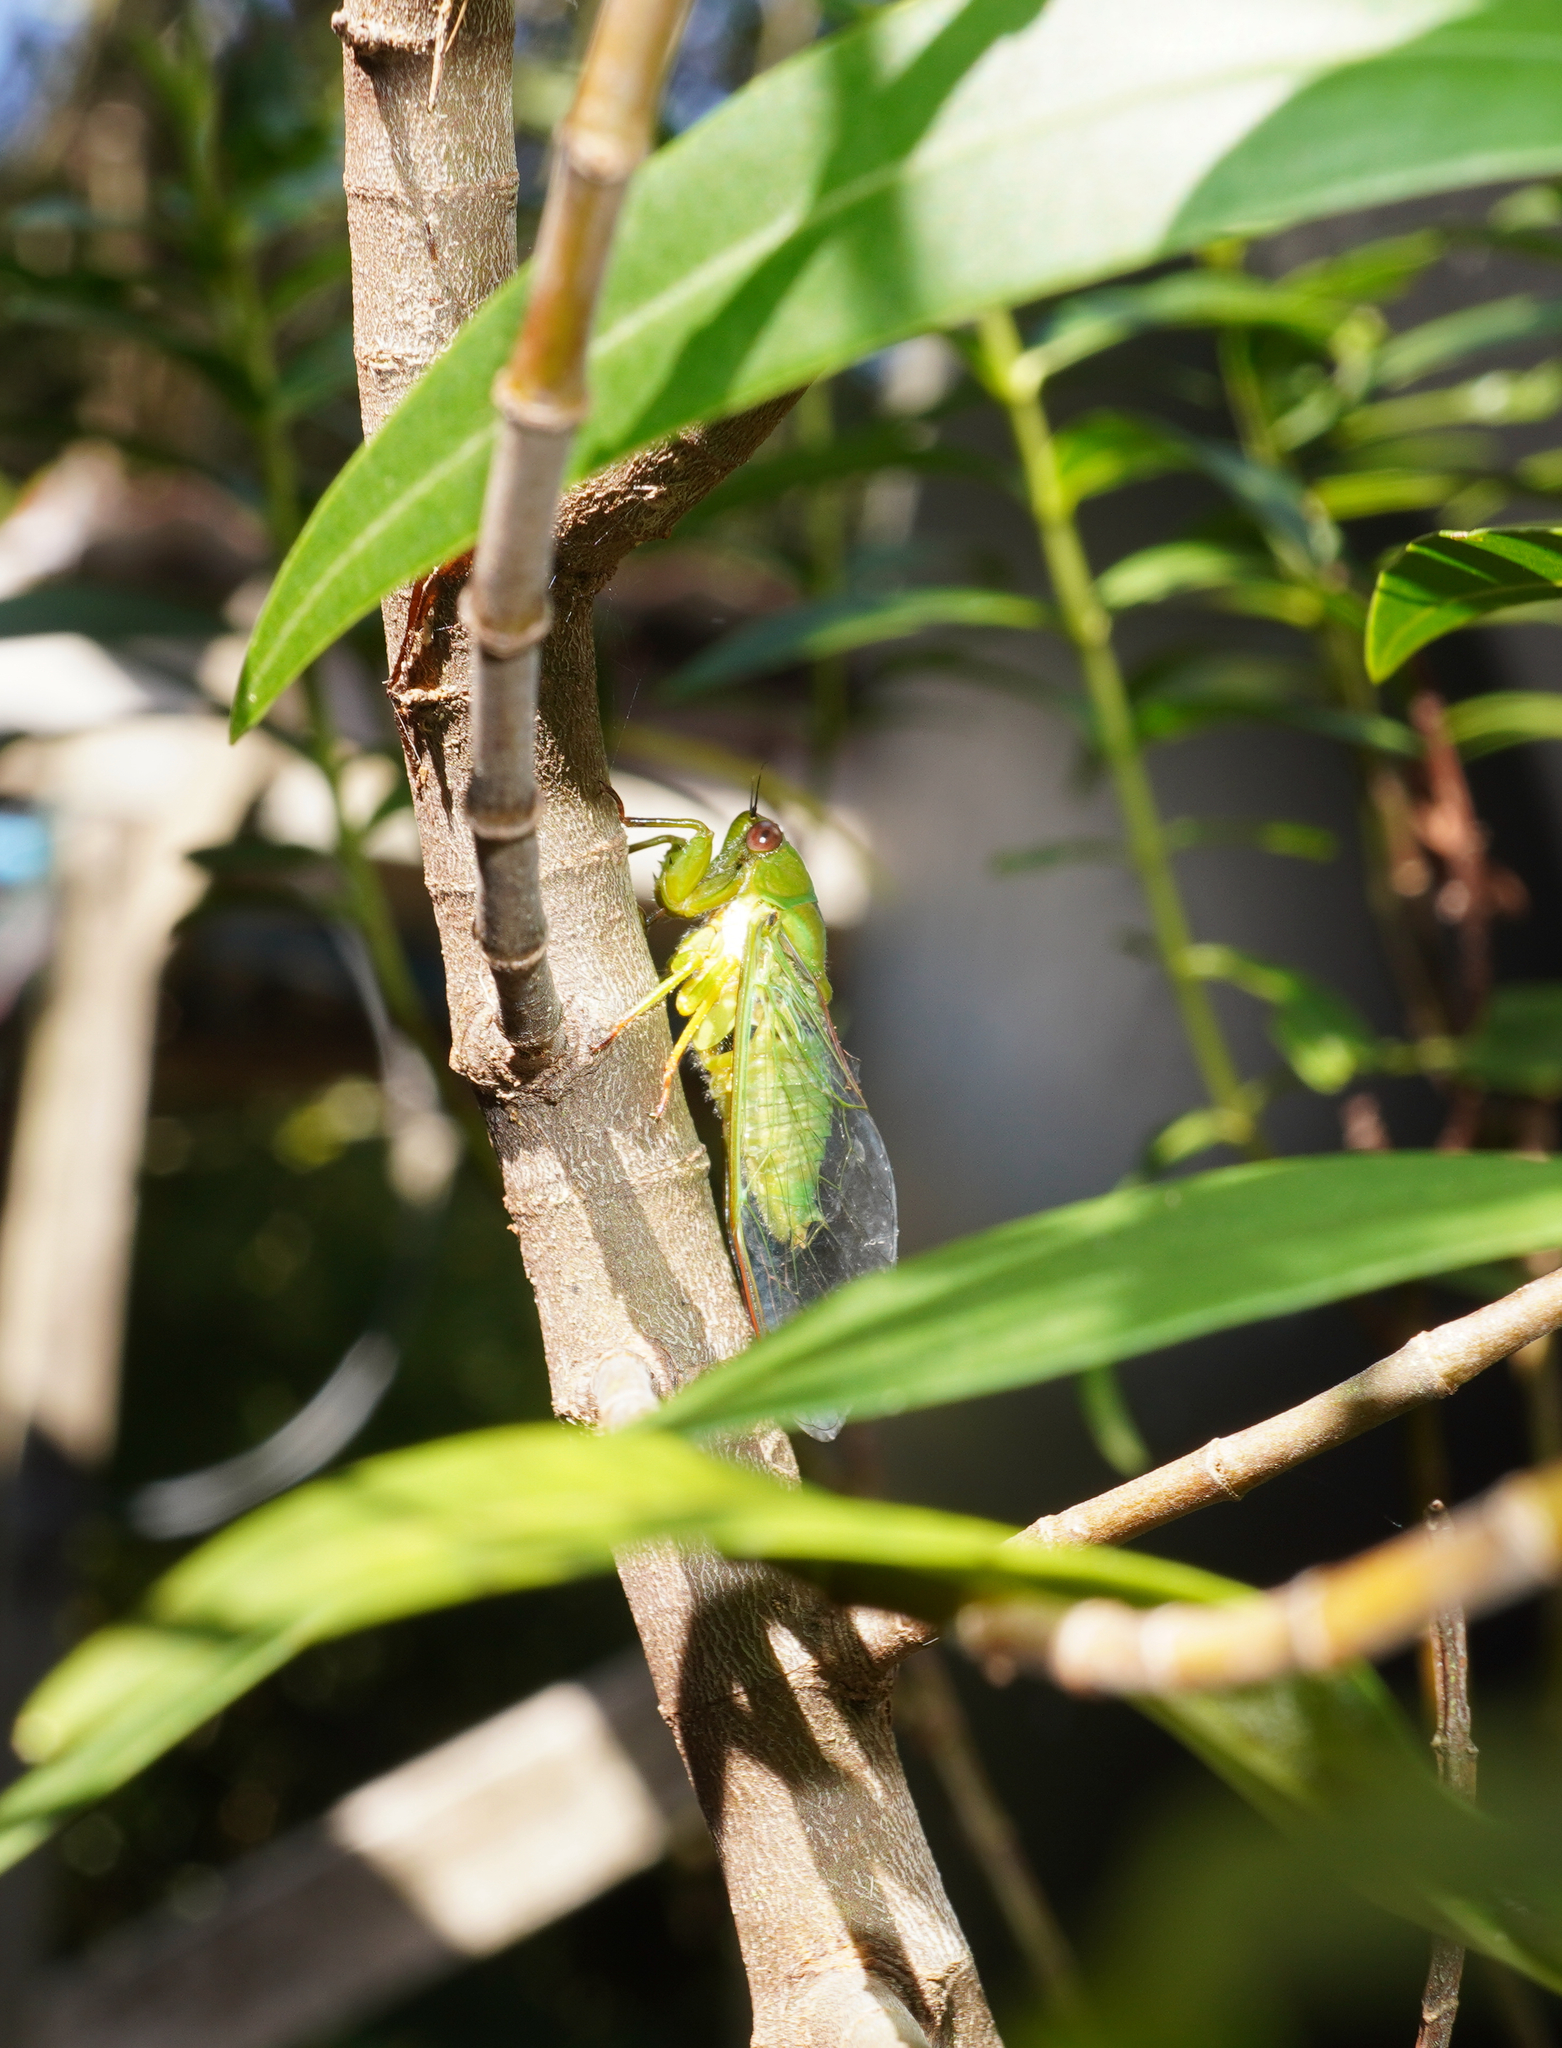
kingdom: Animalia
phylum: Arthropoda
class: Insecta
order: Hemiptera
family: Cicadidae
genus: Kikihia
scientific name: Kikihia ochrina
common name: April green cicada
